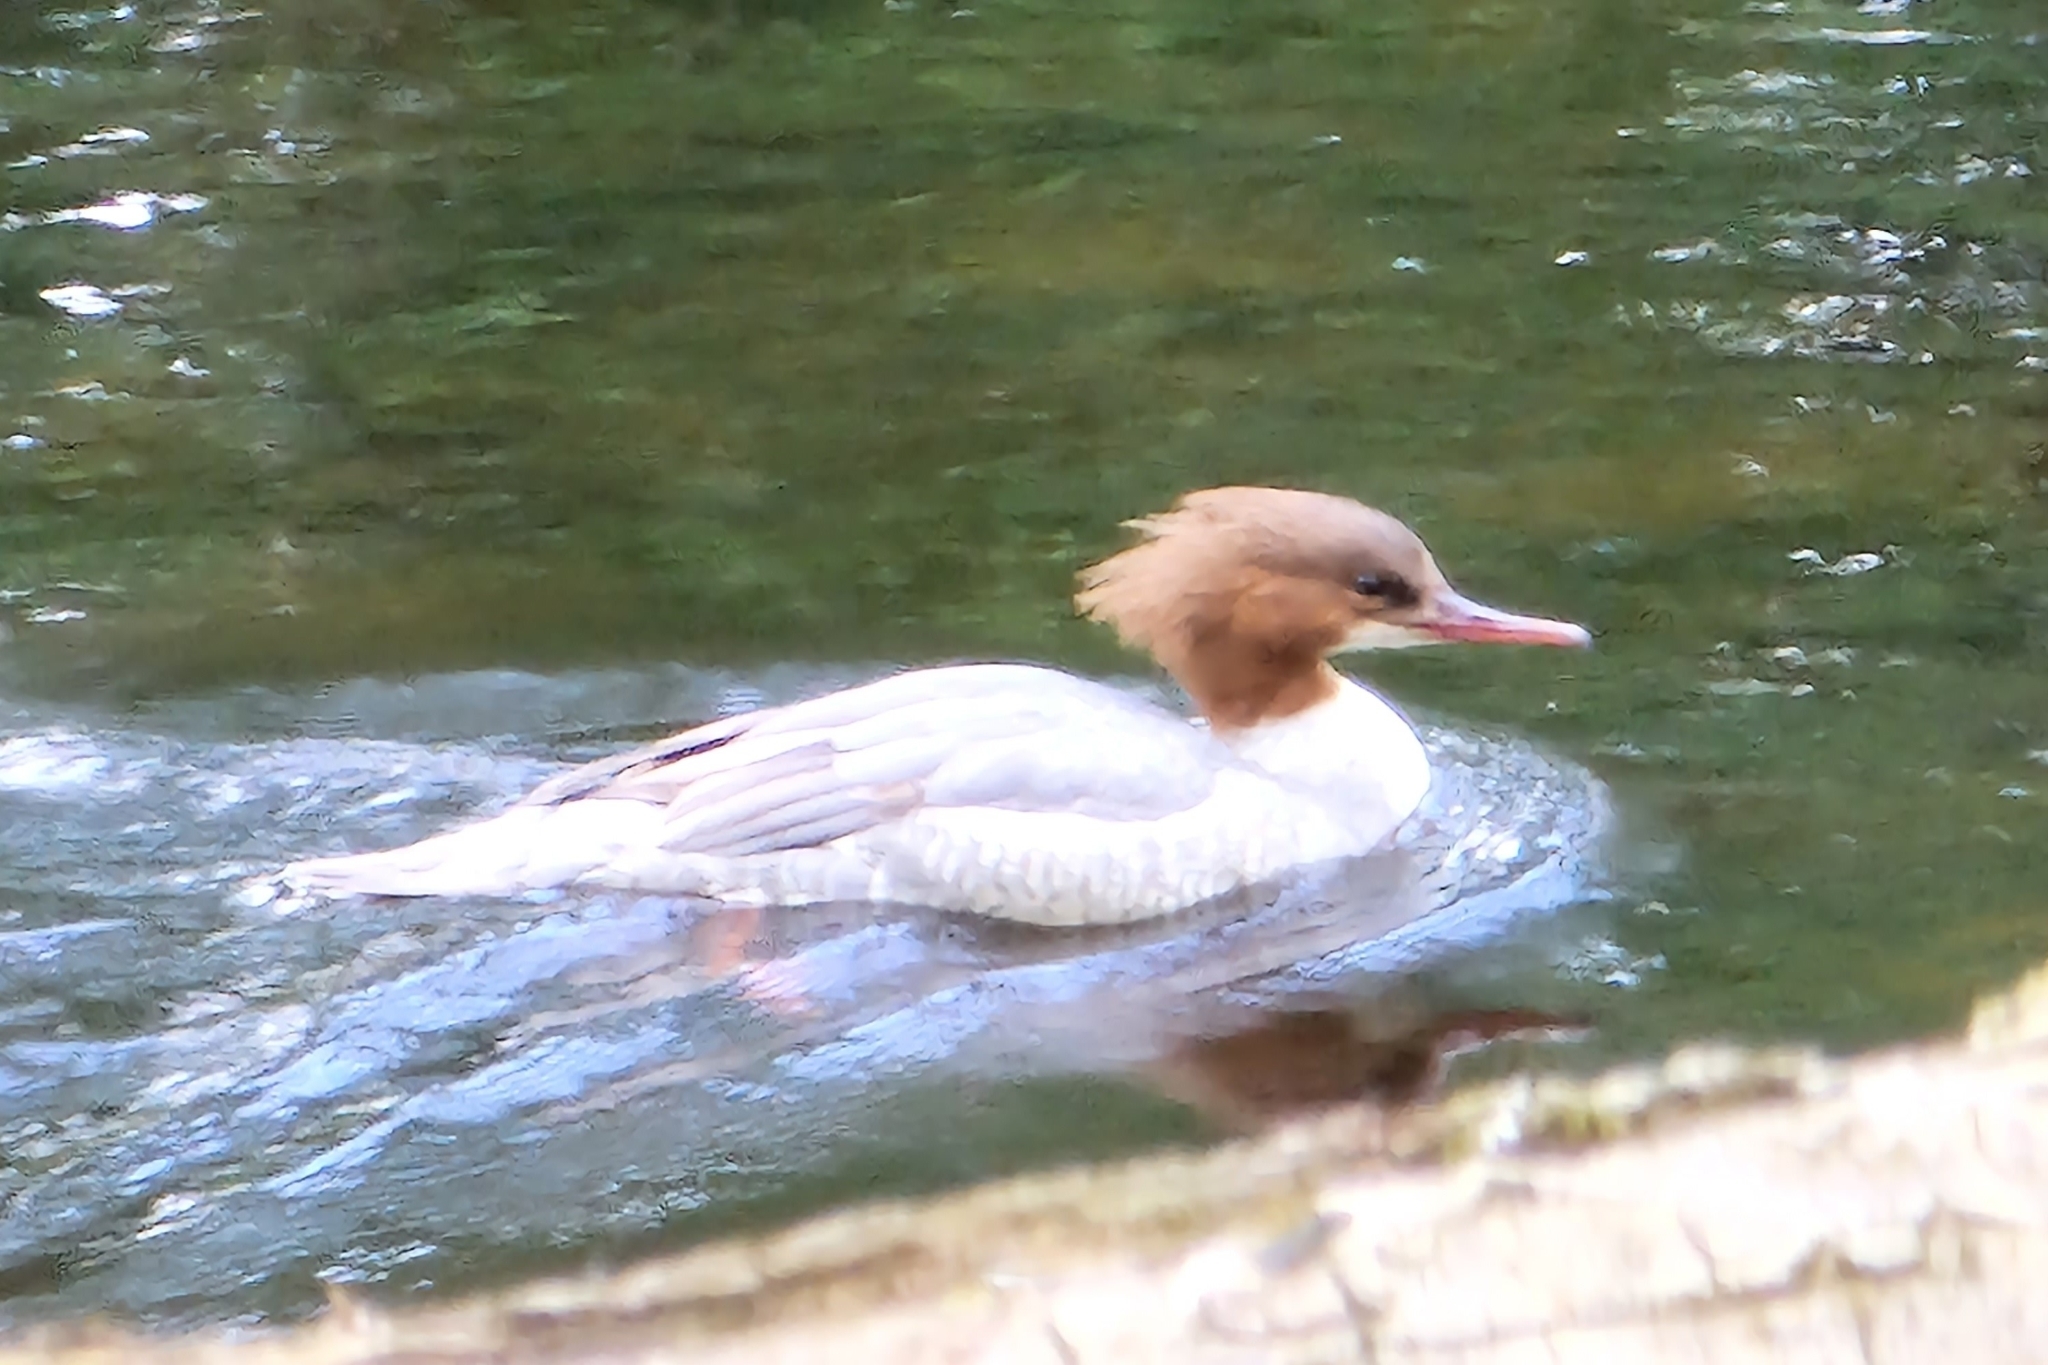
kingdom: Animalia
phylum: Chordata
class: Aves
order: Anseriformes
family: Anatidae
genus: Mergus
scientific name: Mergus merganser
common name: Common merganser
